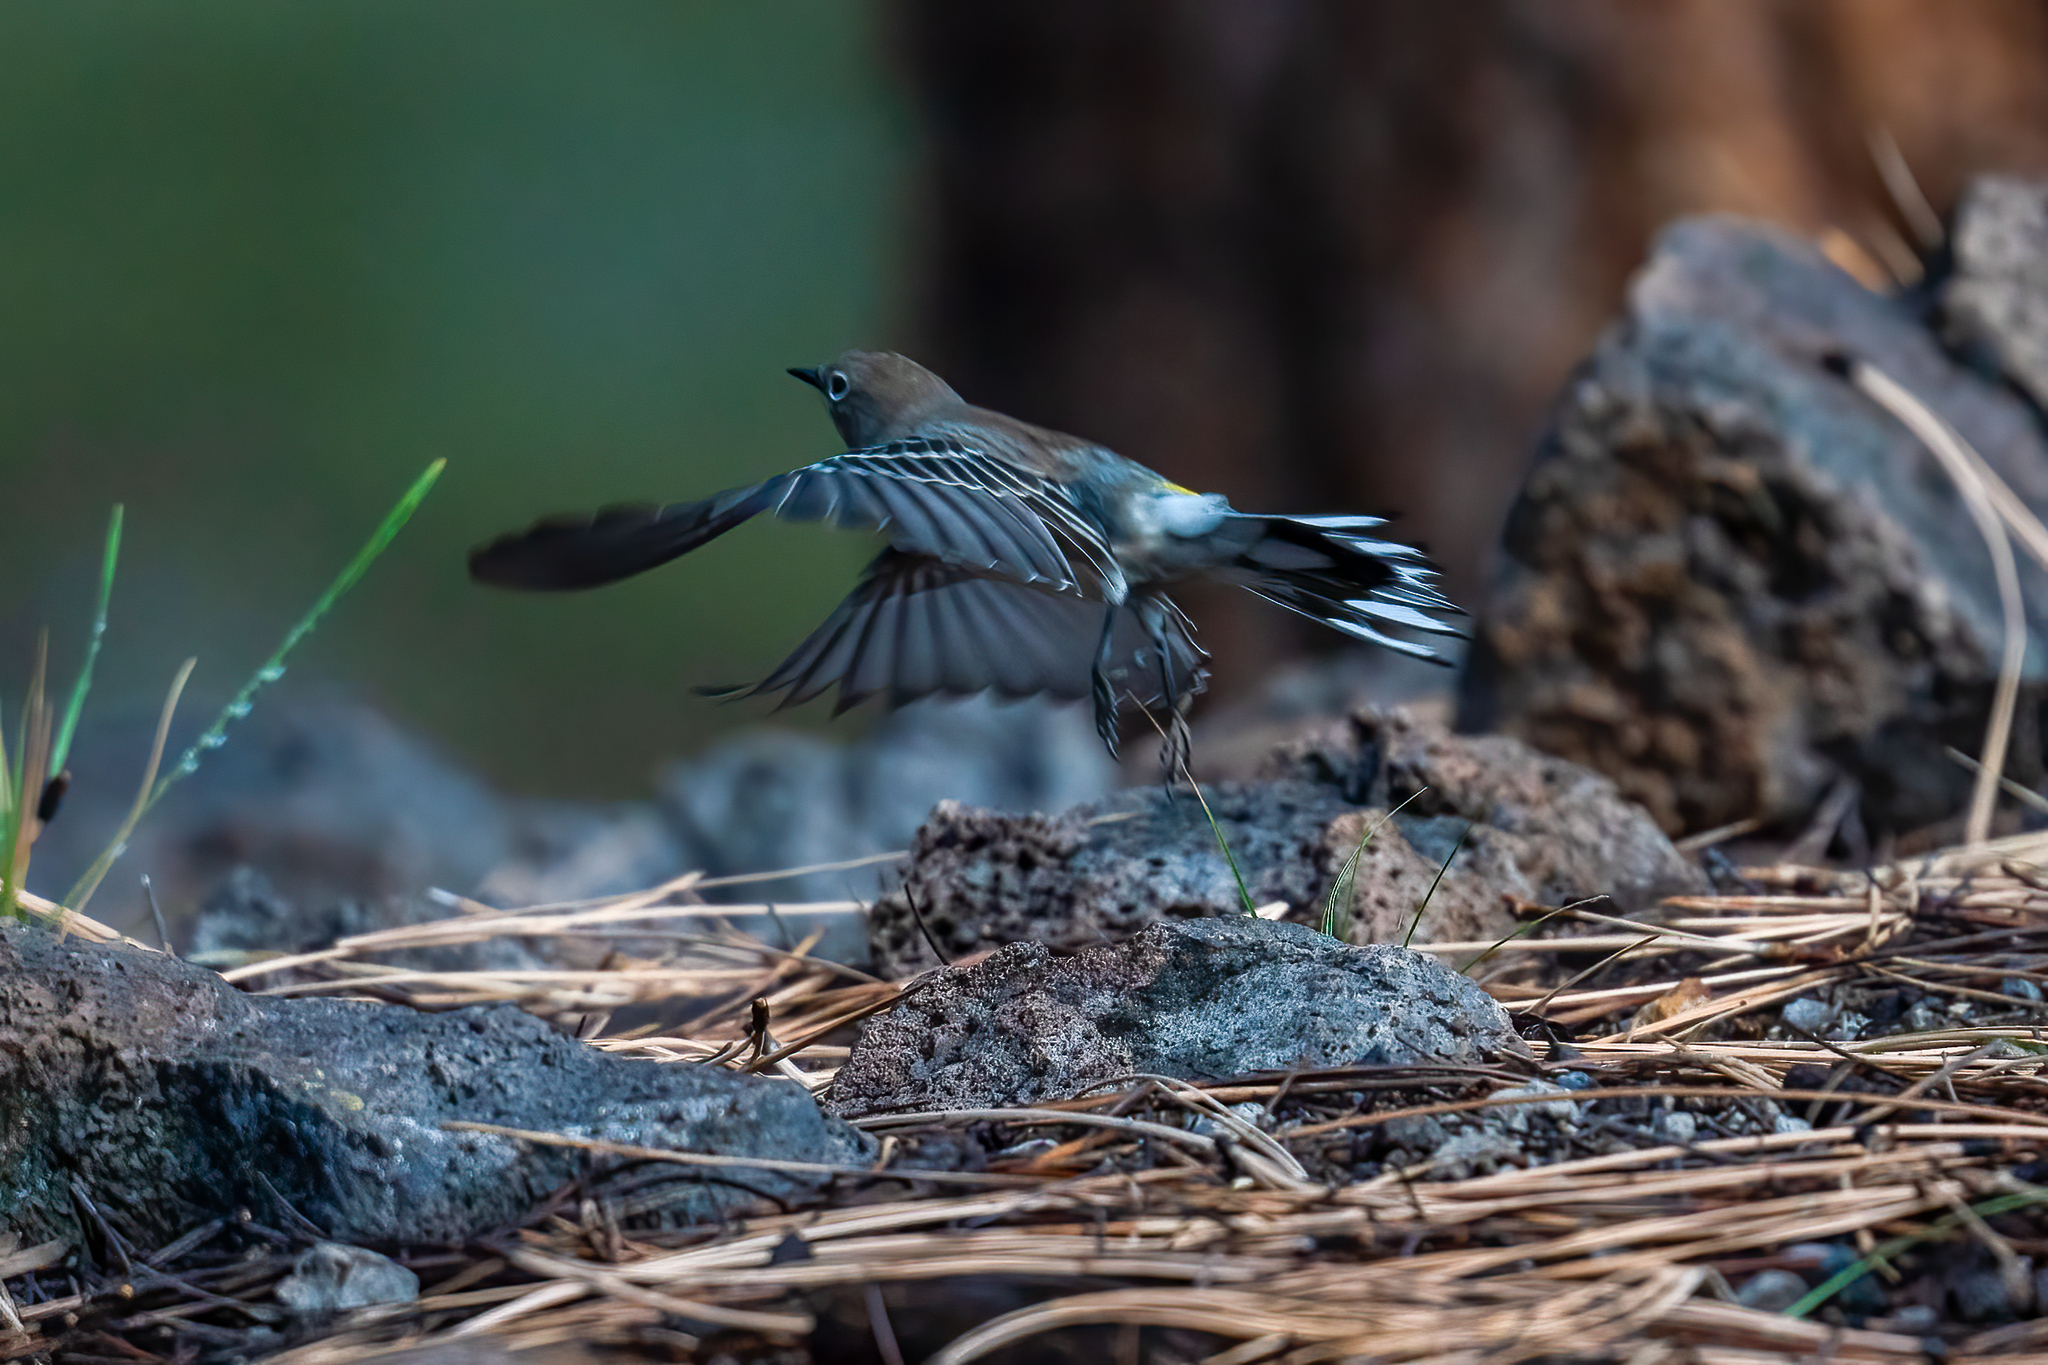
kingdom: Animalia
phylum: Chordata
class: Aves
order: Passeriformes
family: Parulidae
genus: Setophaga
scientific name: Setophaga coronata
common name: Myrtle warbler
